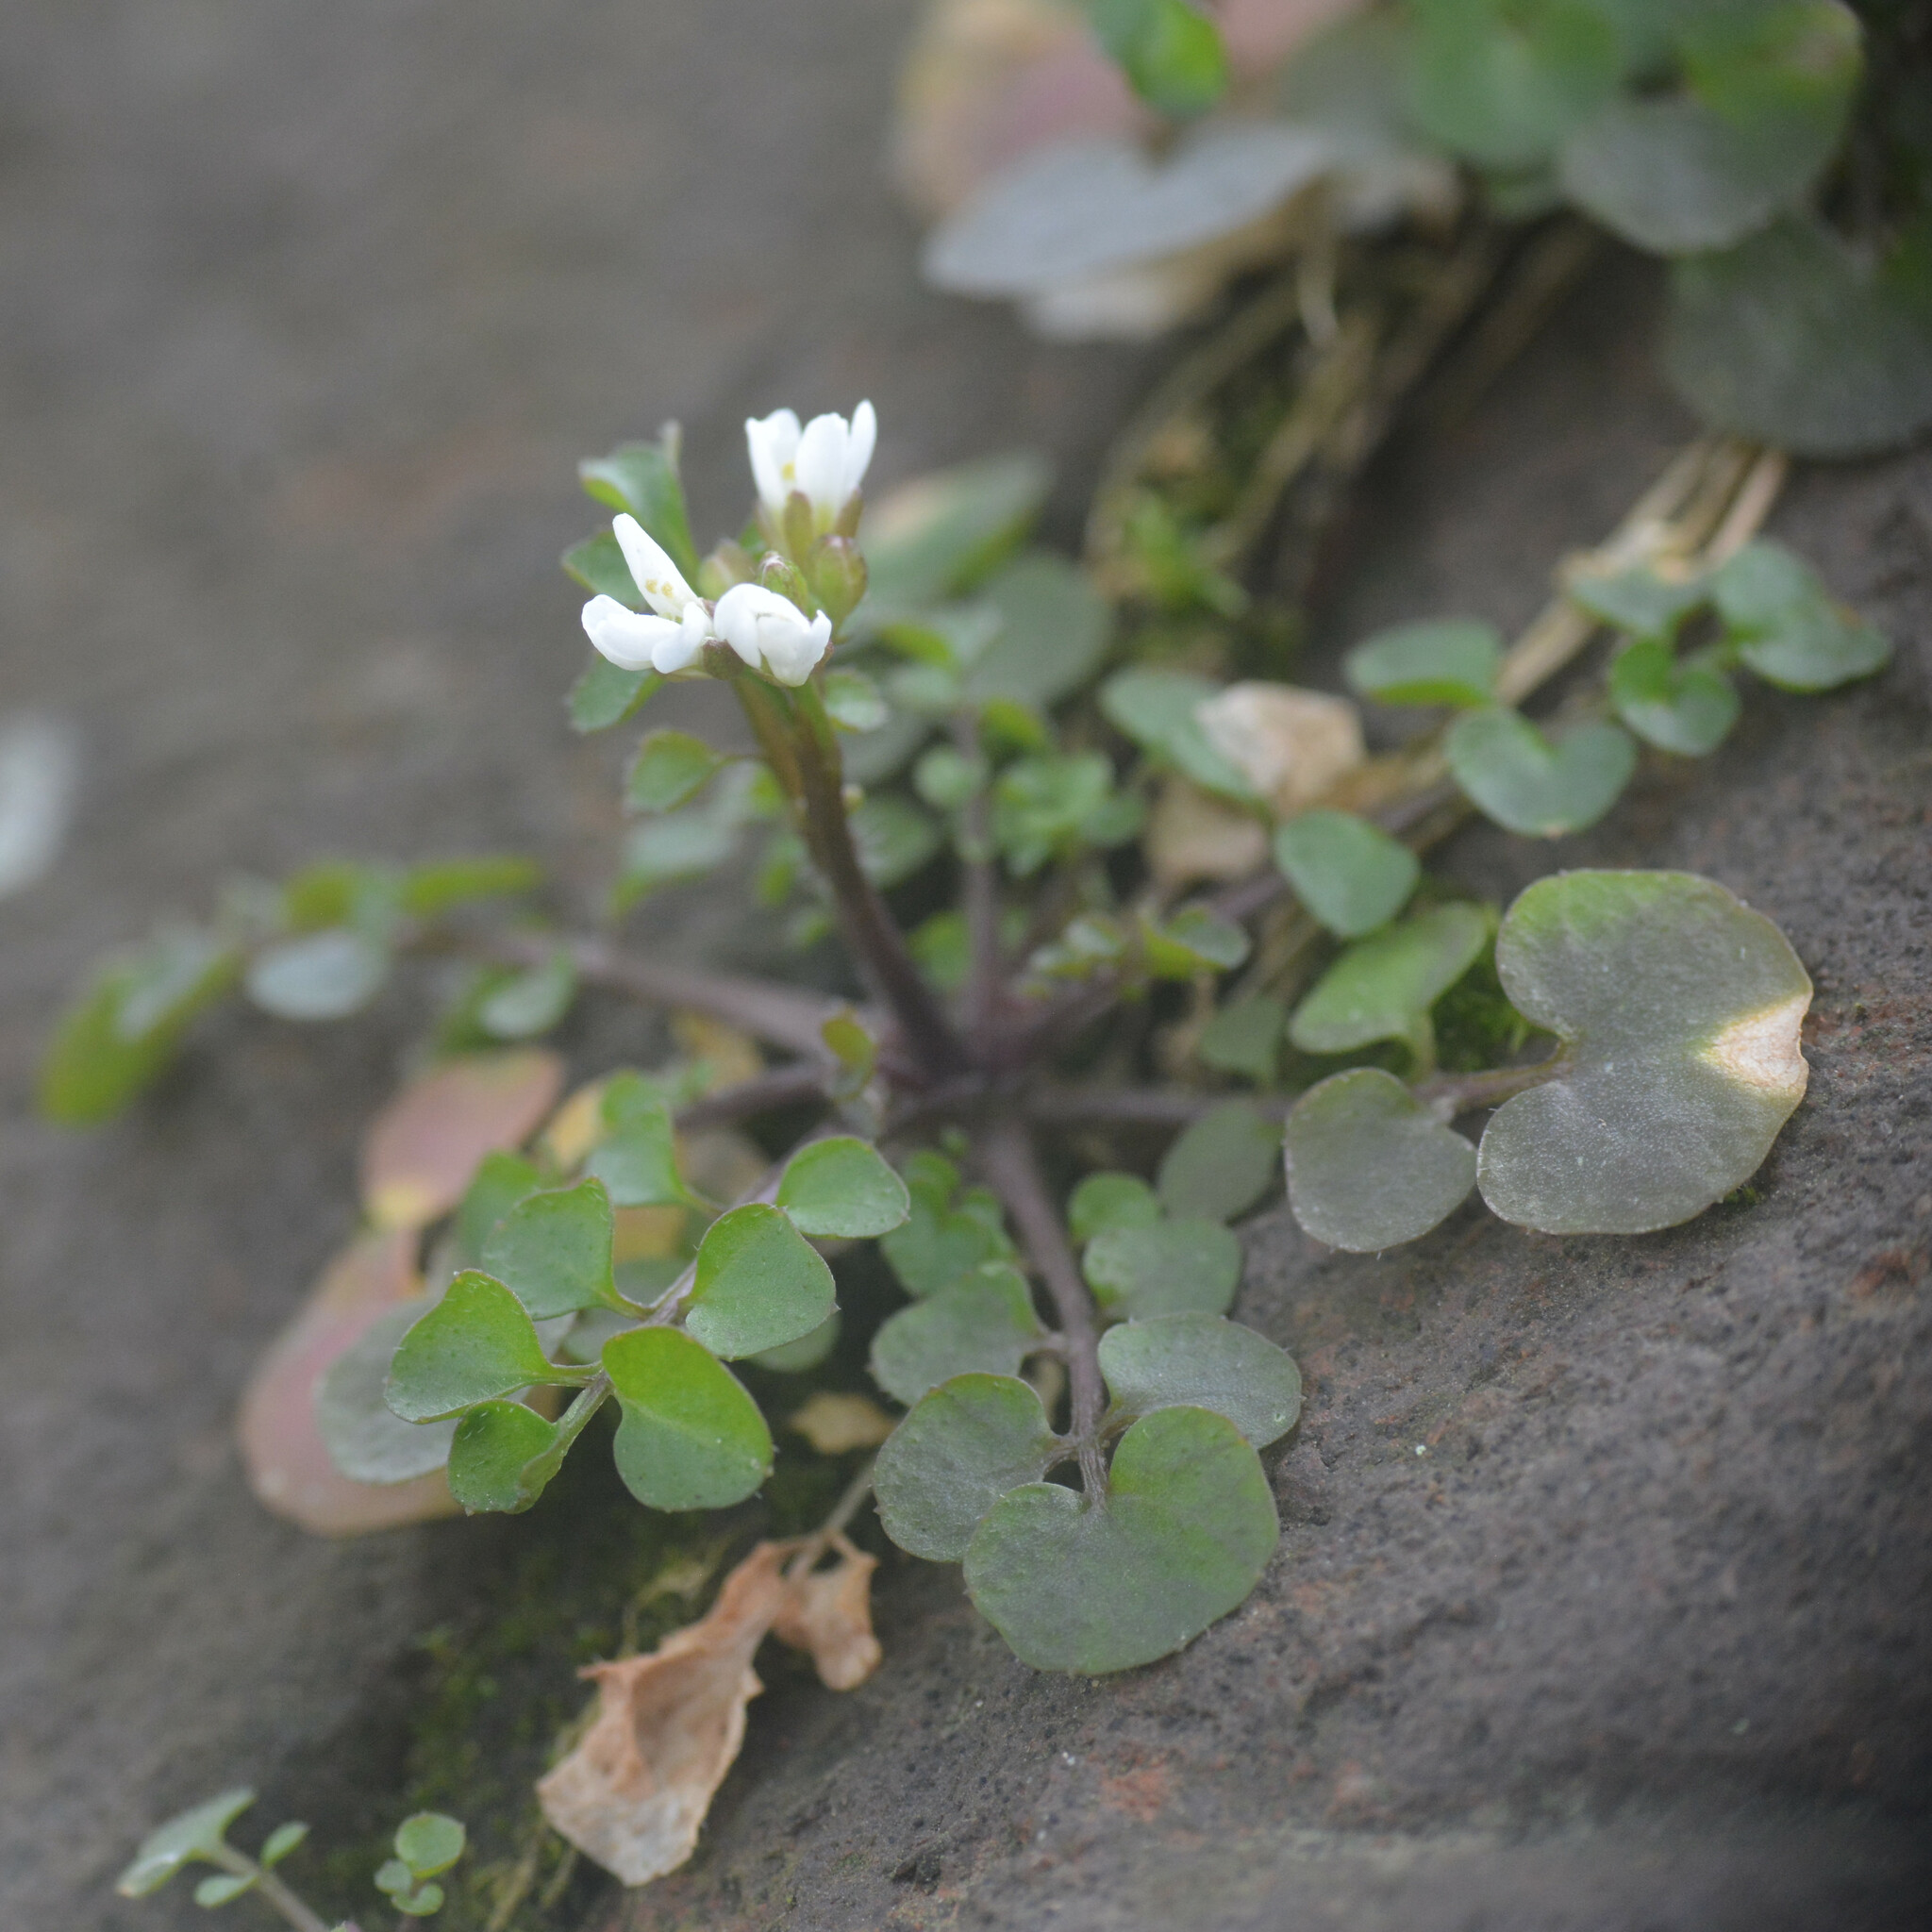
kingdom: Plantae
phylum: Tracheophyta
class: Magnoliopsida
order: Brassicales
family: Brassicaceae
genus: Cardamine
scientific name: Cardamine hirsuta
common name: Hairy bittercress
